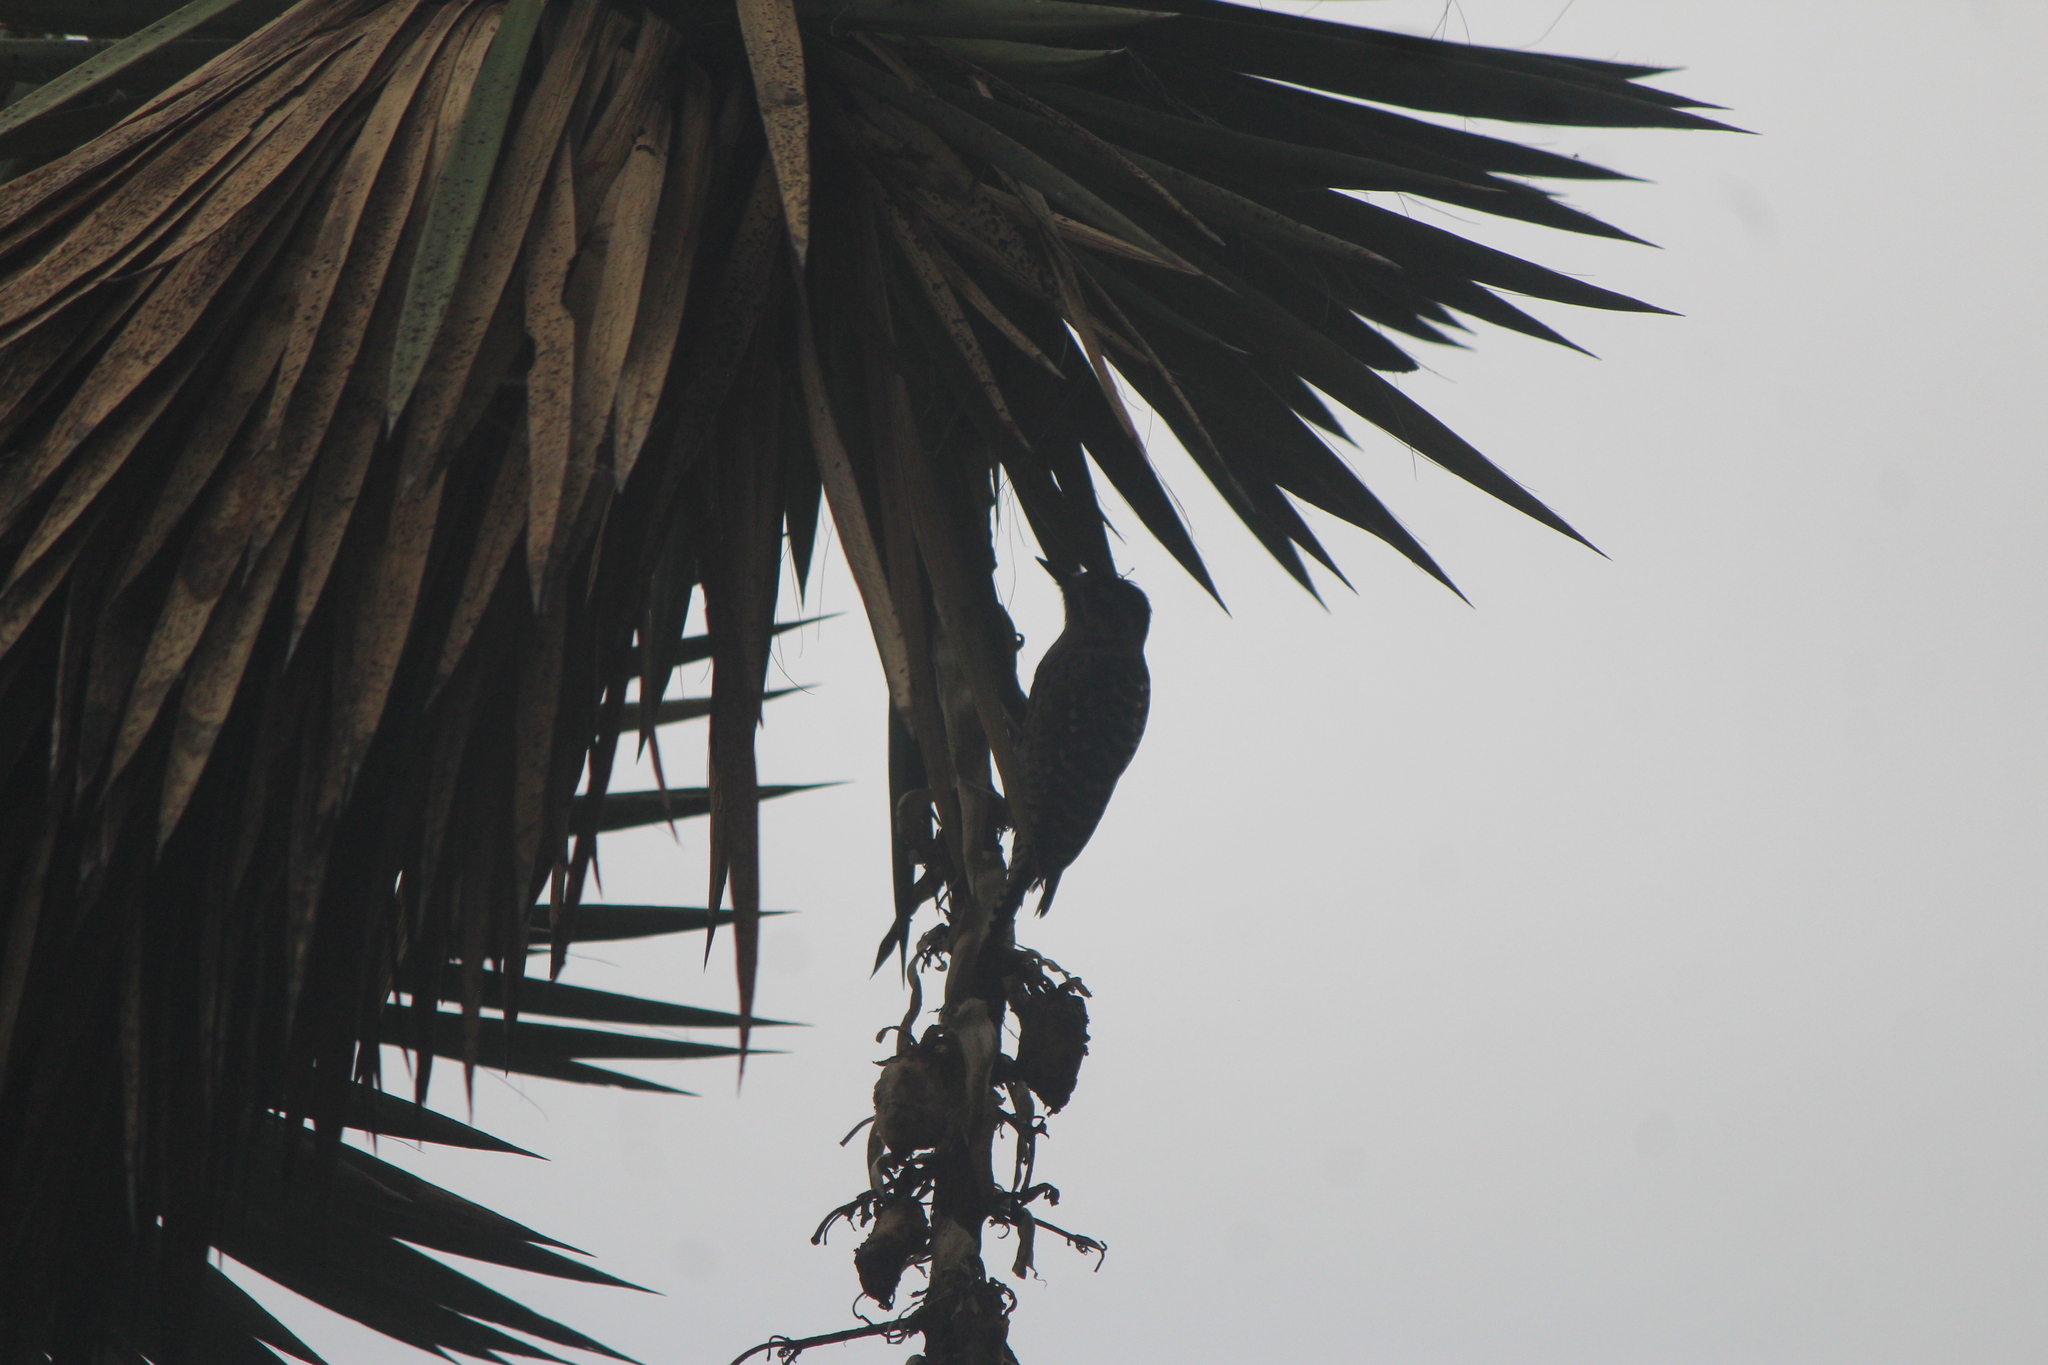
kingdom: Animalia
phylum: Chordata
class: Aves
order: Piciformes
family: Picidae
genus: Dryobates
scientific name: Dryobates scalaris
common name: Ladder-backed woodpecker
